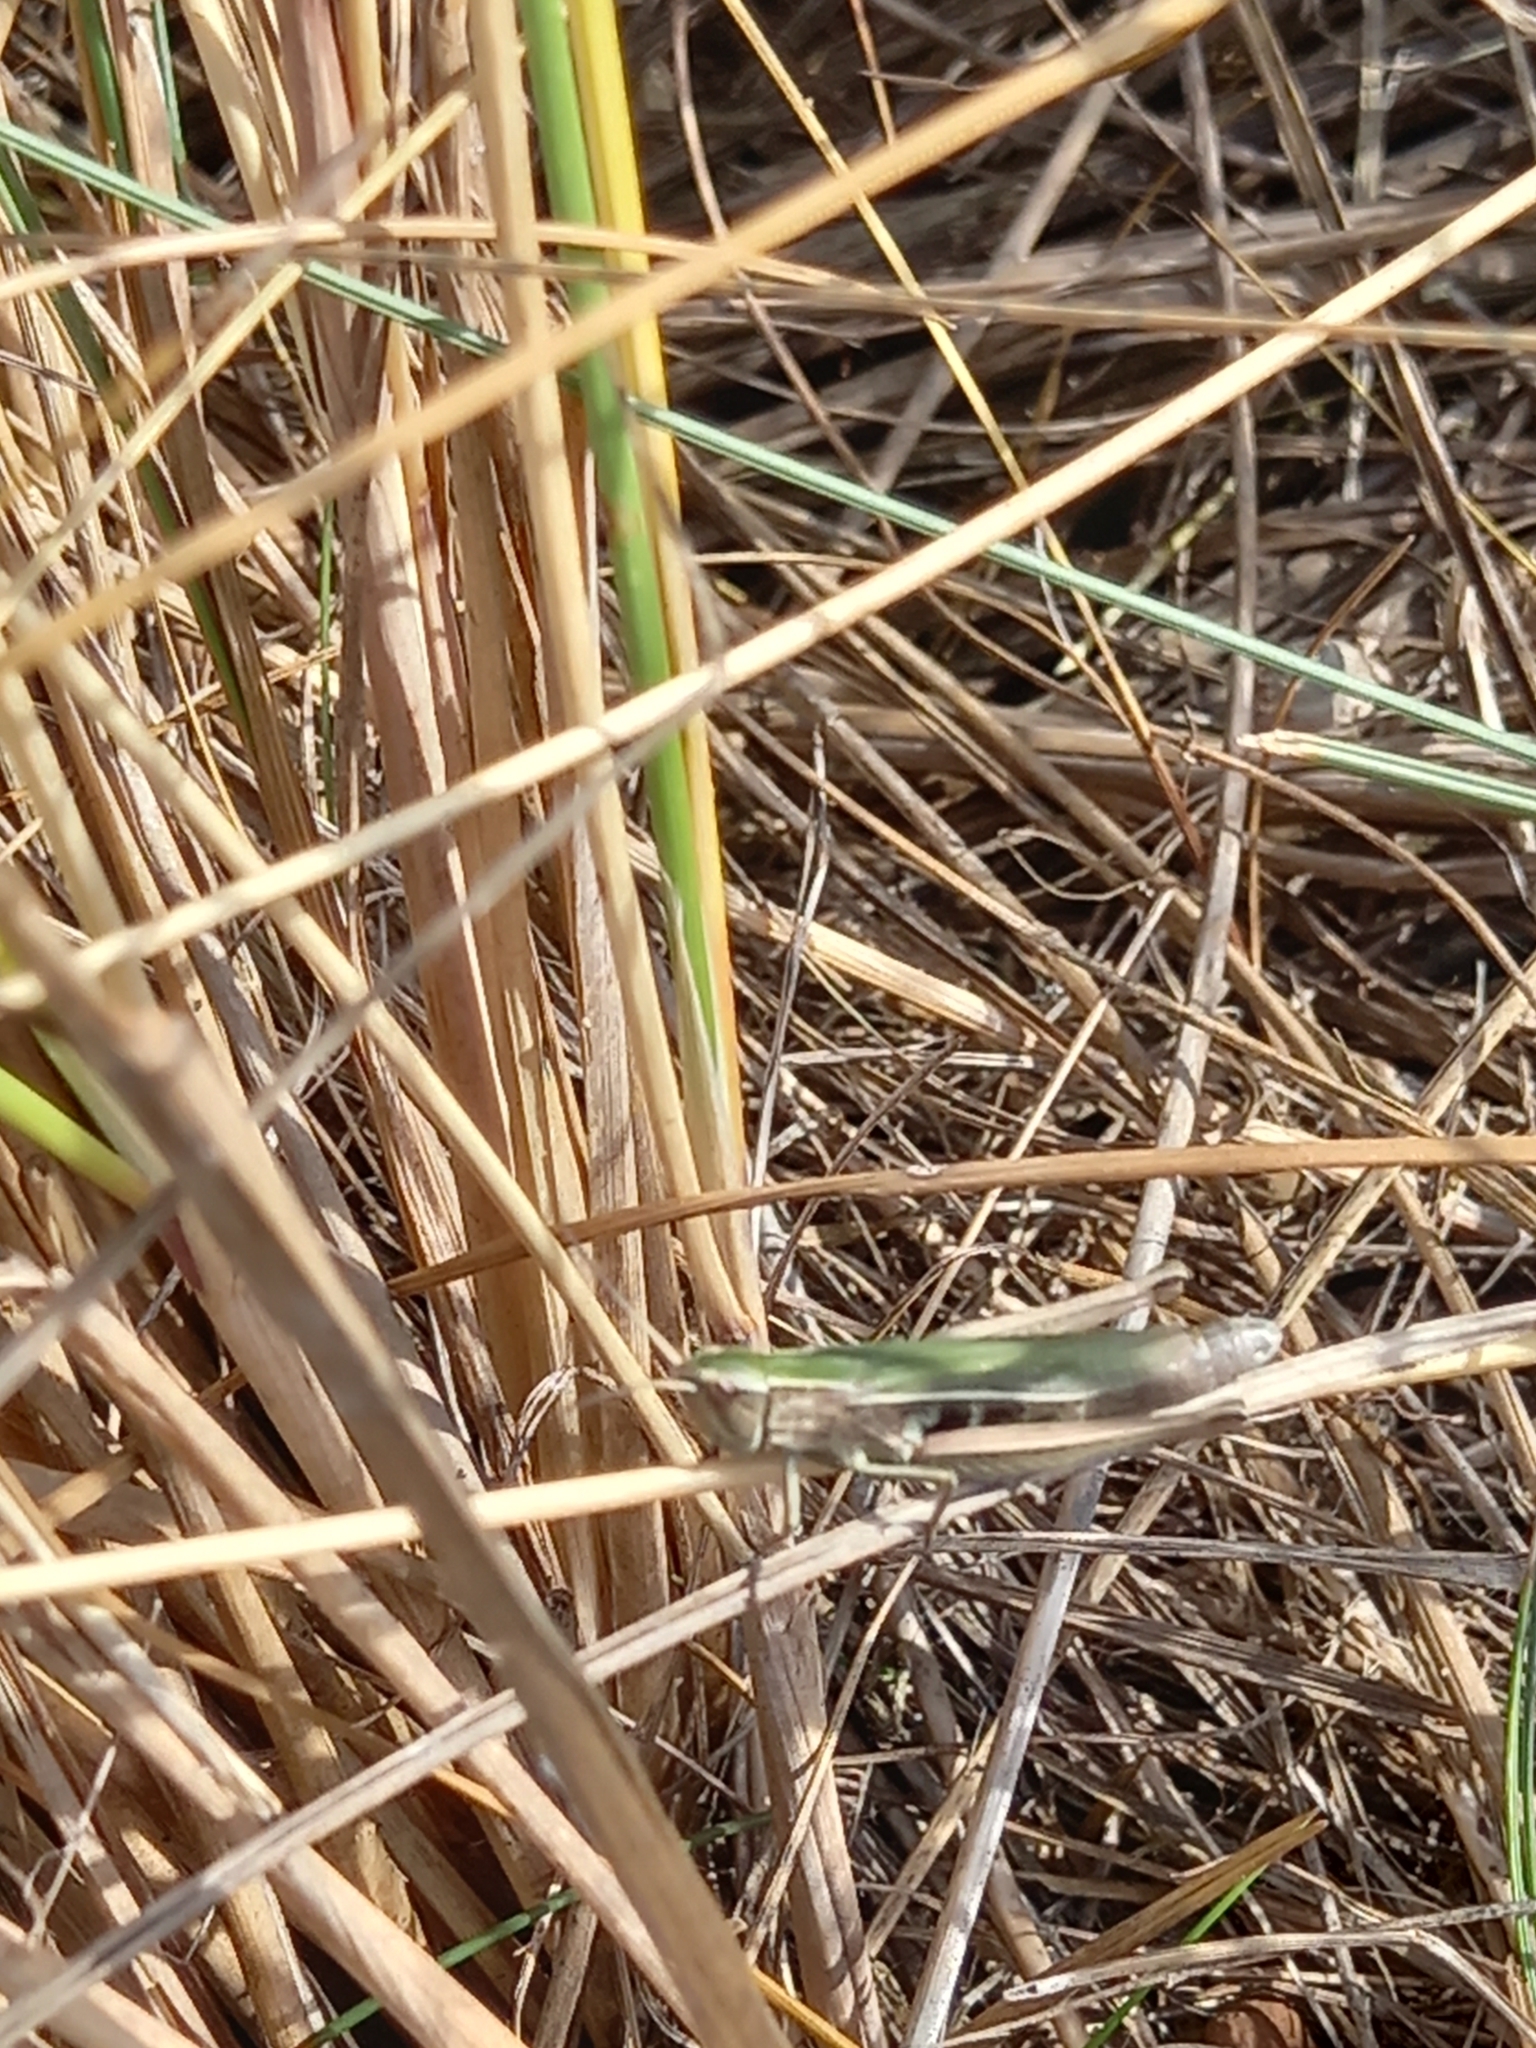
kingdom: Animalia
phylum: Arthropoda
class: Insecta
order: Orthoptera
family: Acrididae
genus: Chorthippus
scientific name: Chorthippus albomarginatus
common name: Lesser marsh grasshopper
